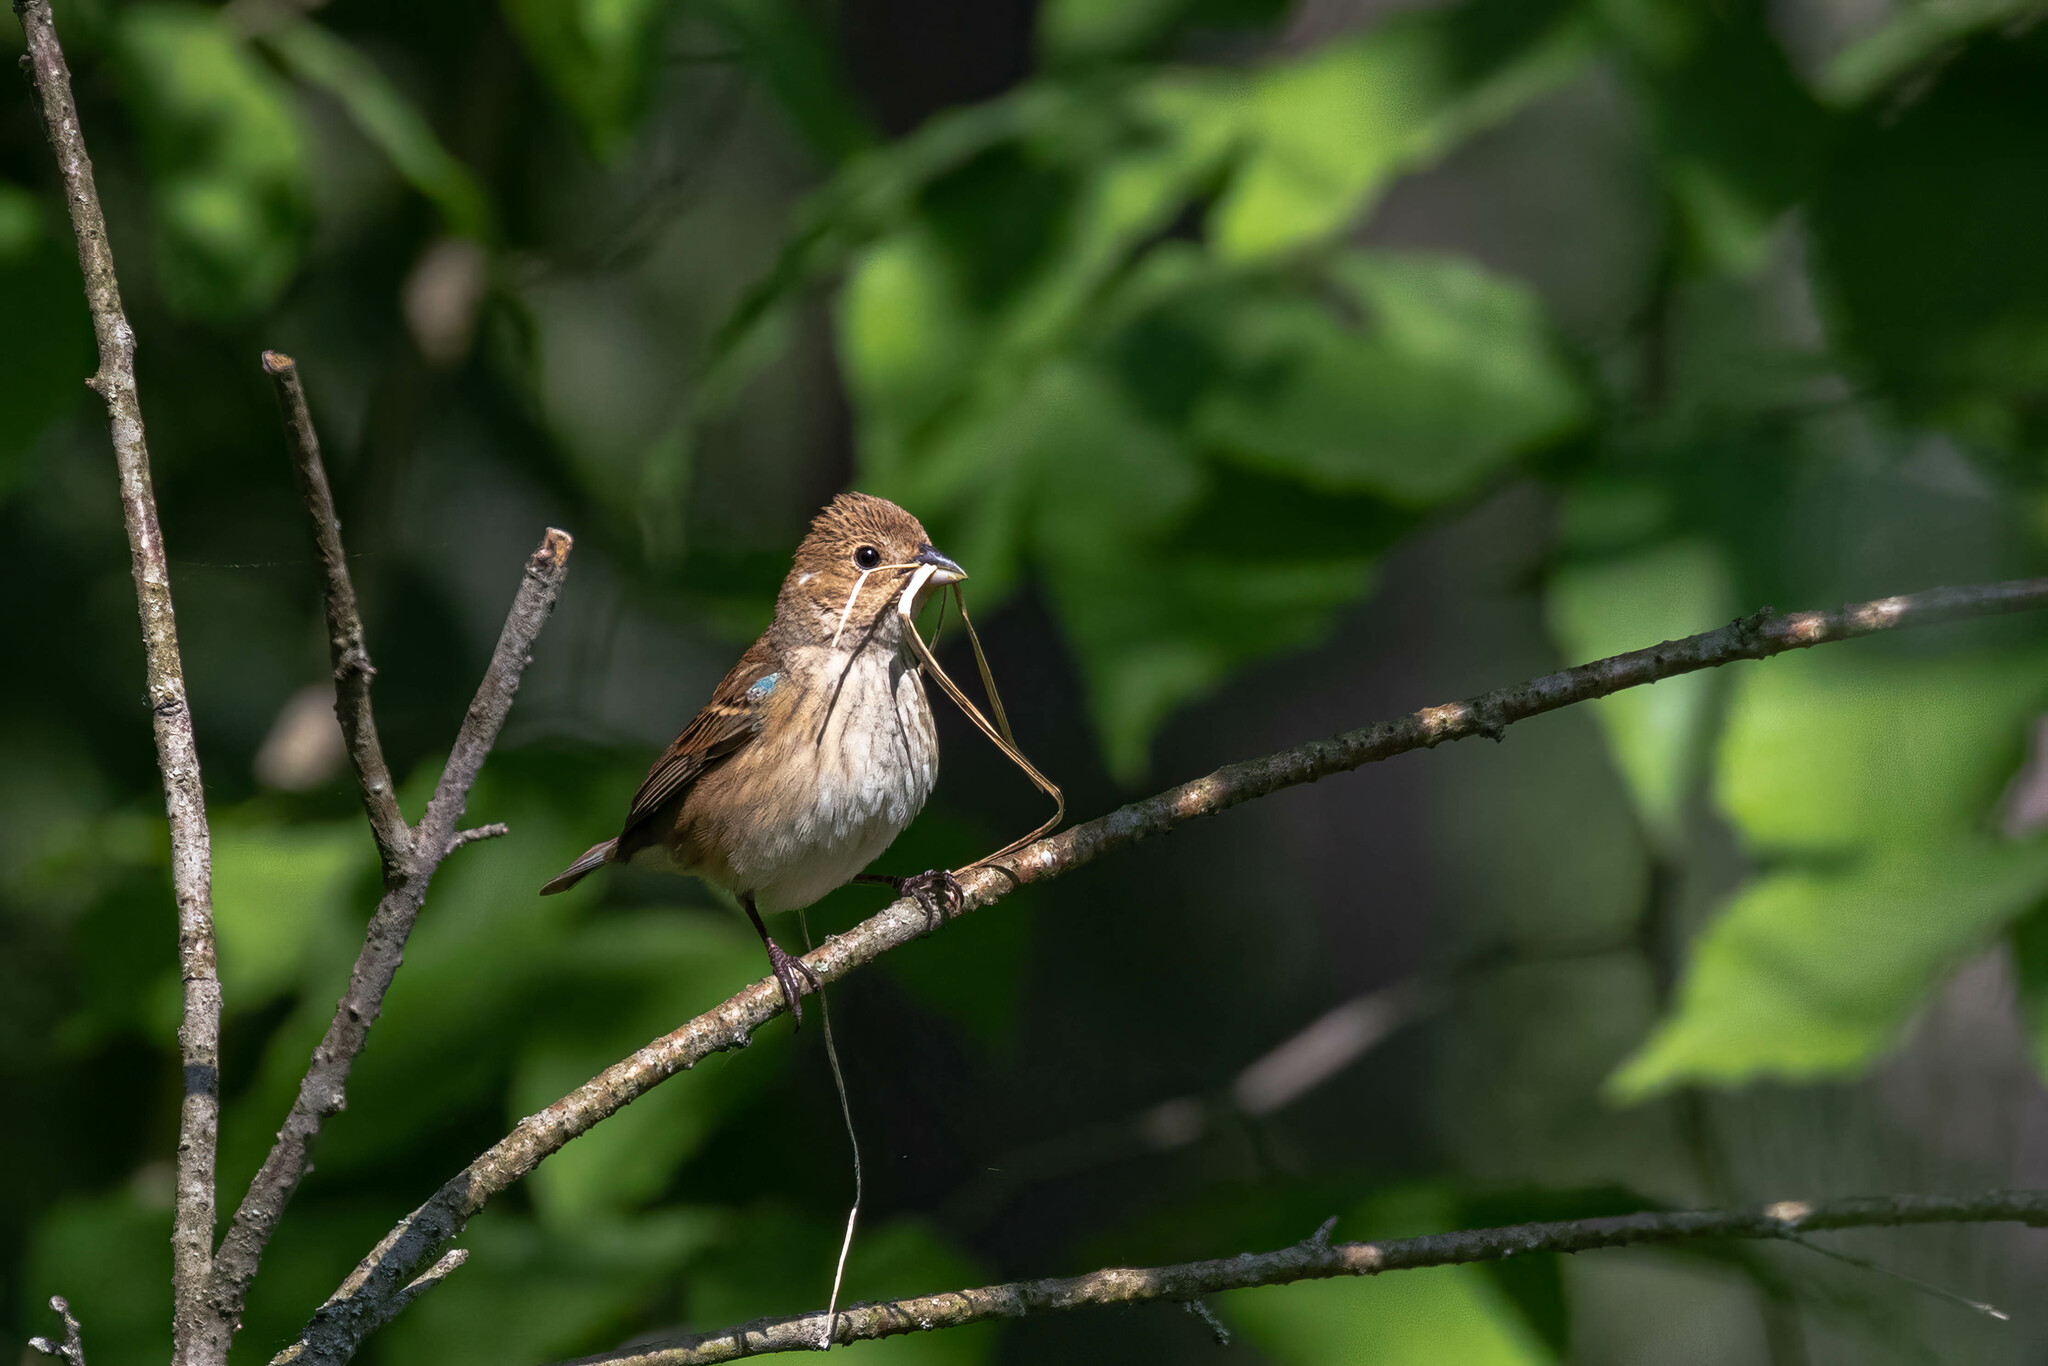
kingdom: Animalia
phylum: Chordata
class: Aves
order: Passeriformes
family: Cardinalidae
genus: Passerina
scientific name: Passerina cyanea
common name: Indigo bunting
